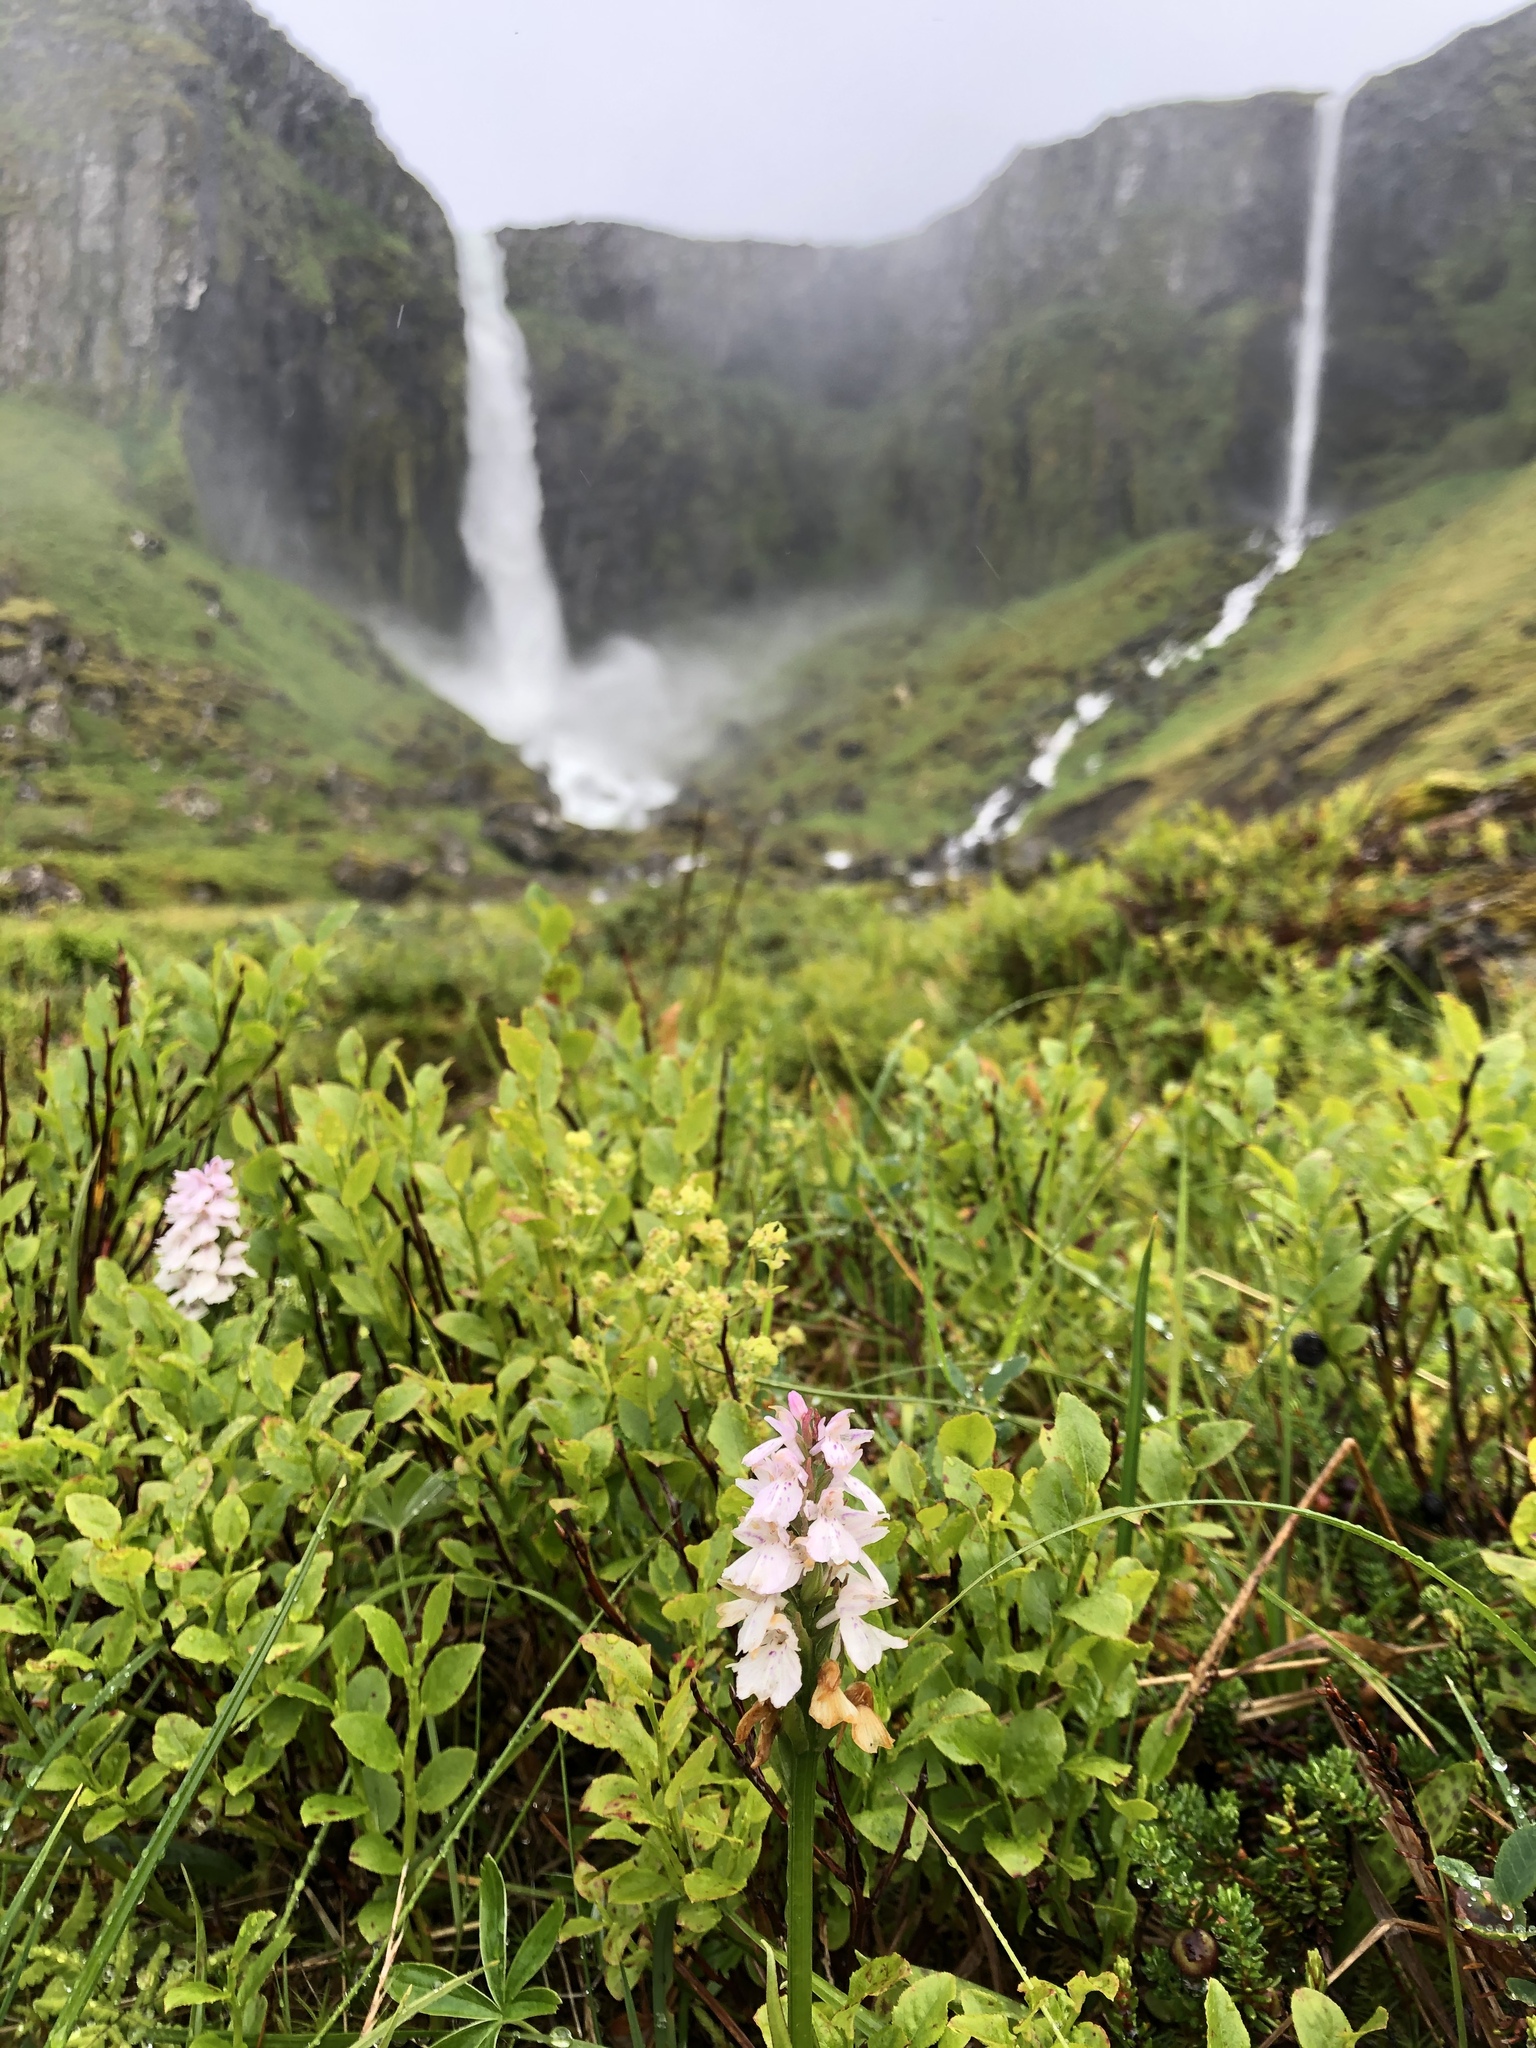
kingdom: Plantae
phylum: Tracheophyta
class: Liliopsida
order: Asparagales
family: Orchidaceae
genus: Dactylorhiza
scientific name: Dactylorhiza maculata
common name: Heath spotted-orchid
